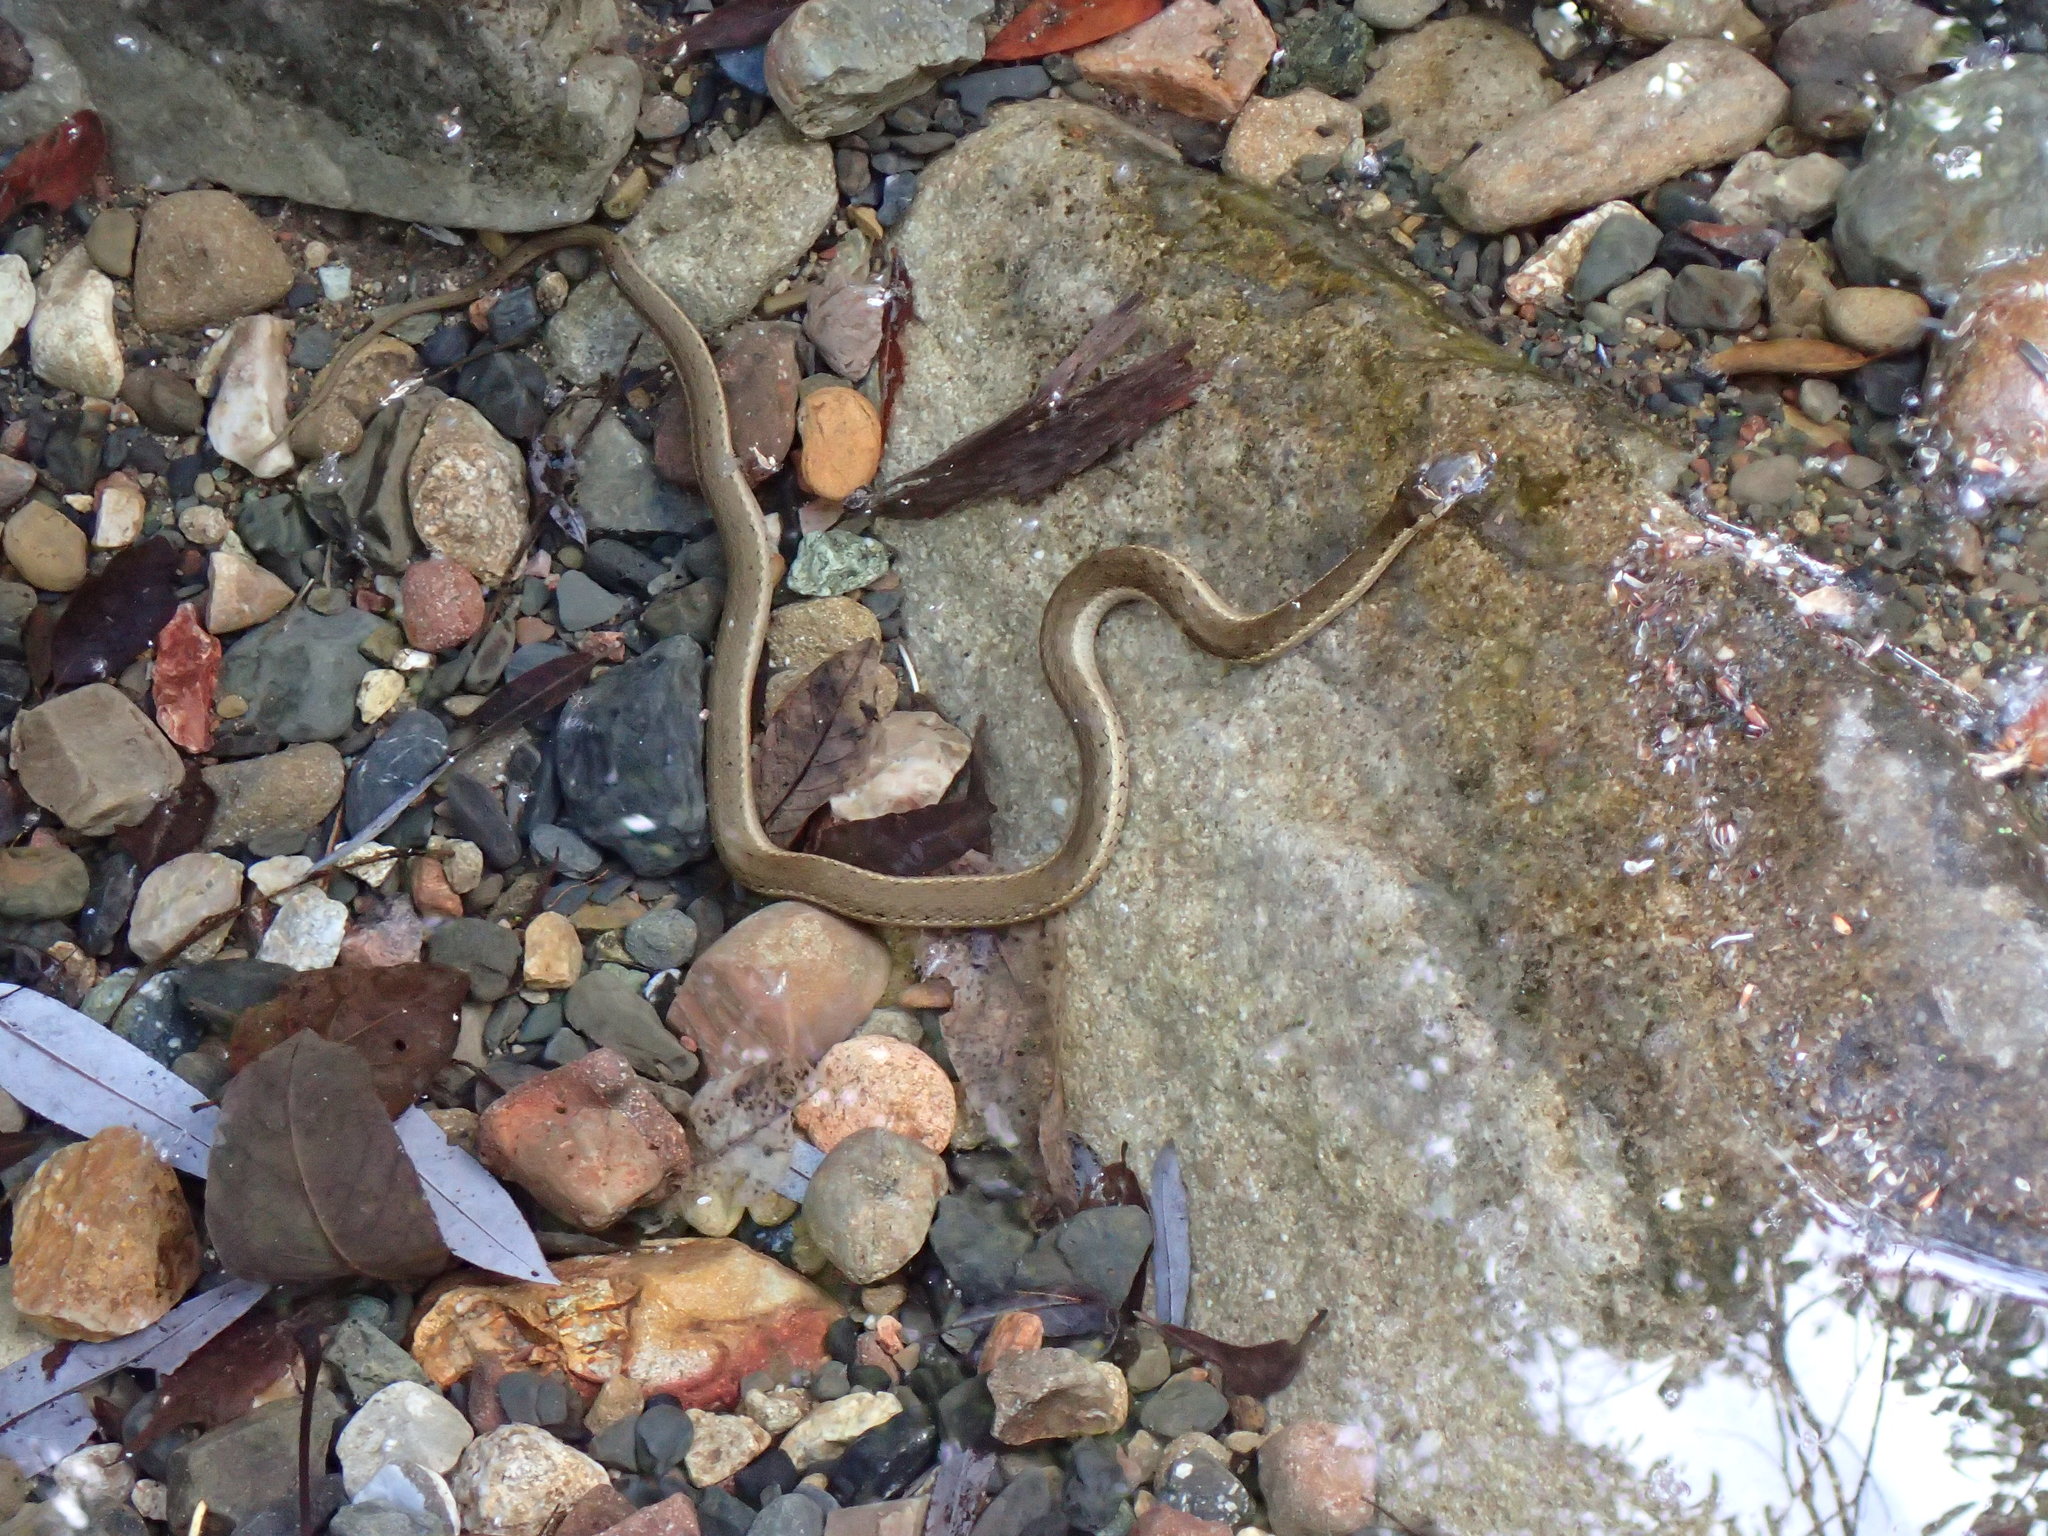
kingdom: Animalia
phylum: Chordata
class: Squamata
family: Colubridae
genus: Thamnophis
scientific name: Thamnophis hammondii
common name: Two-striped garter snake
